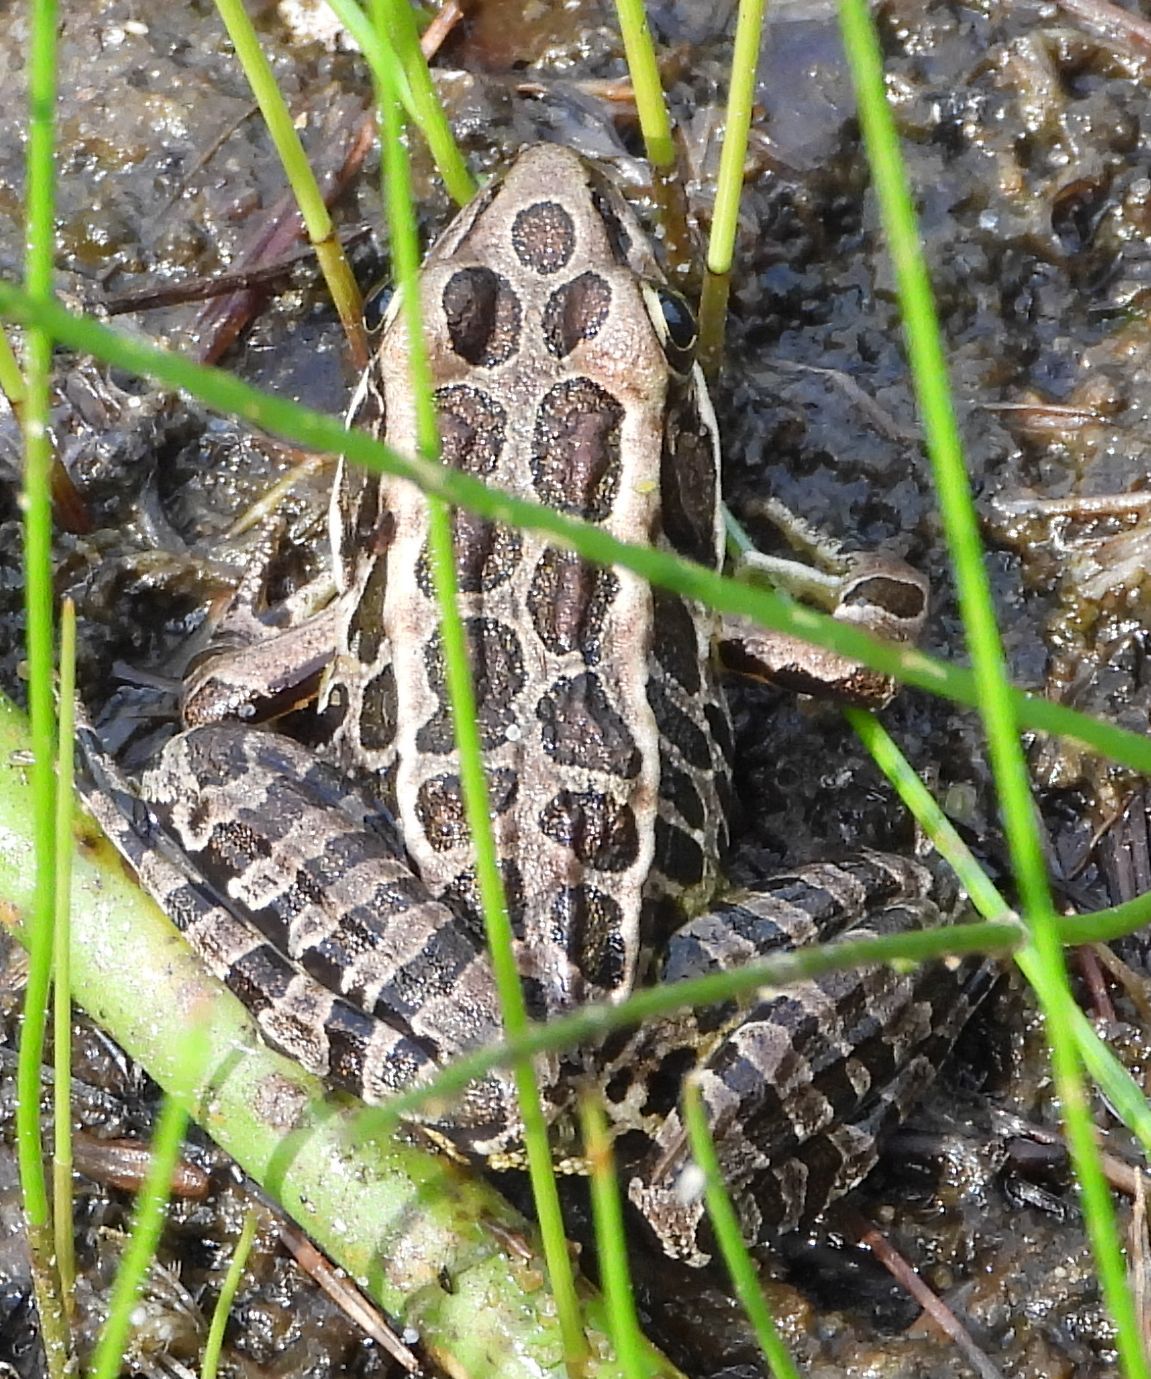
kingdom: Animalia
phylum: Chordata
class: Amphibia
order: Anura
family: Ranidae
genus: Lithobates
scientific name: Lithobates palustris
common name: Pickerel frog
